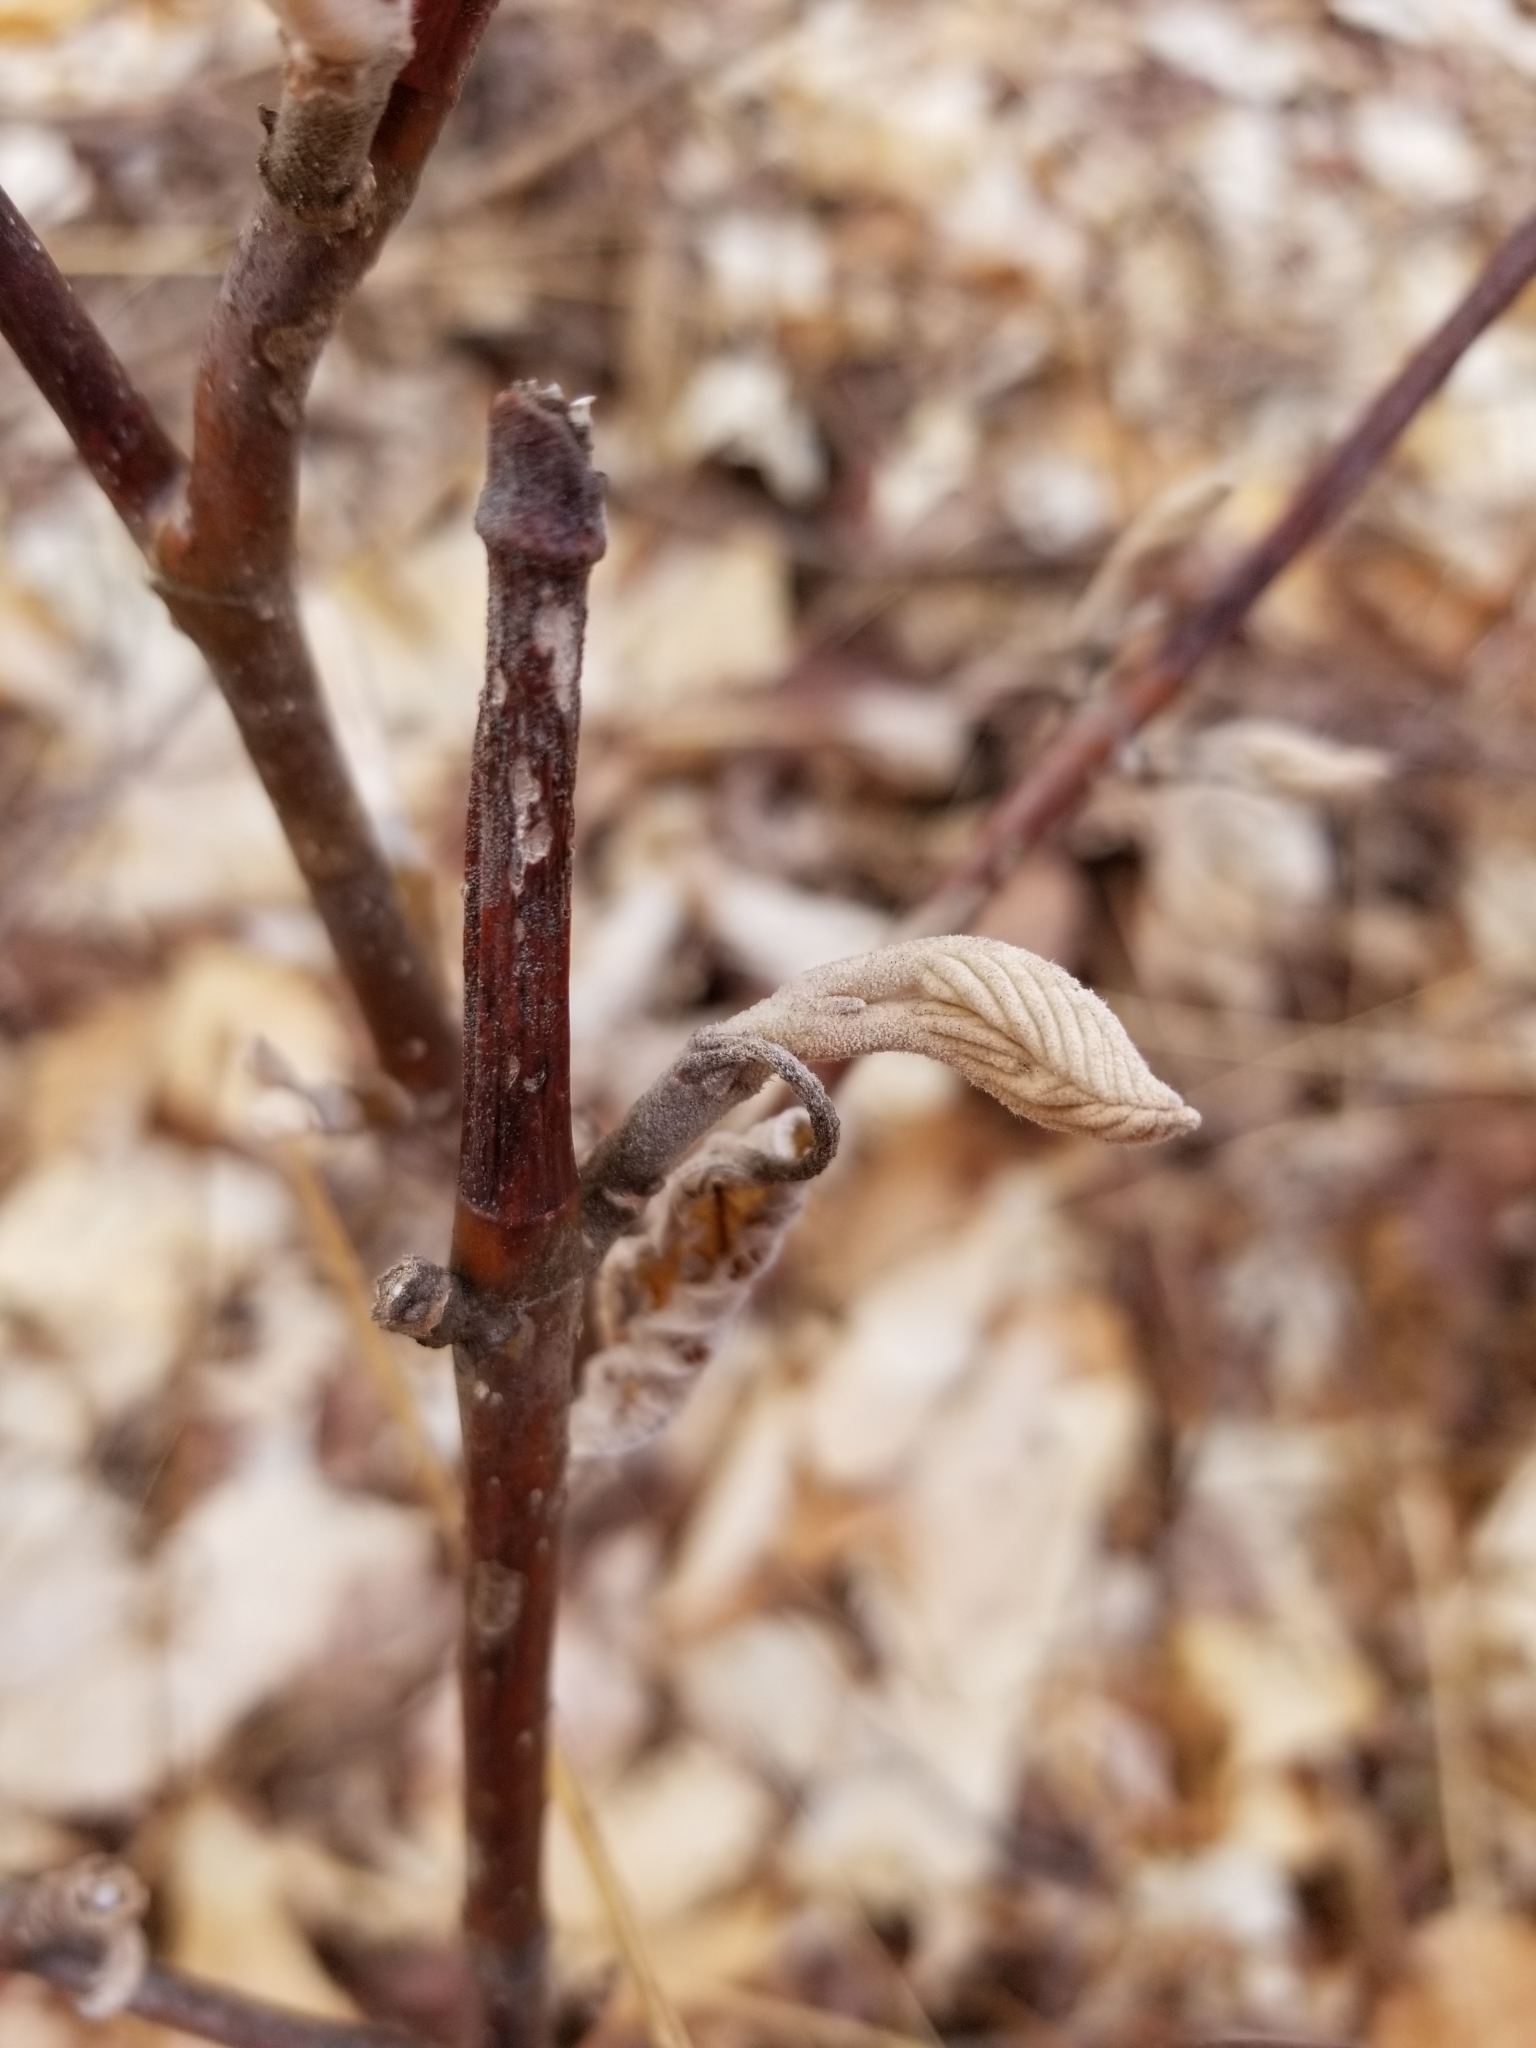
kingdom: Plantae
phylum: Tracheophyta
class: Magnoliopsida
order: Dipsacales
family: Viburnaceae
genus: Viburnum
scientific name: Viburnum lantanoides
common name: Hobblebush
